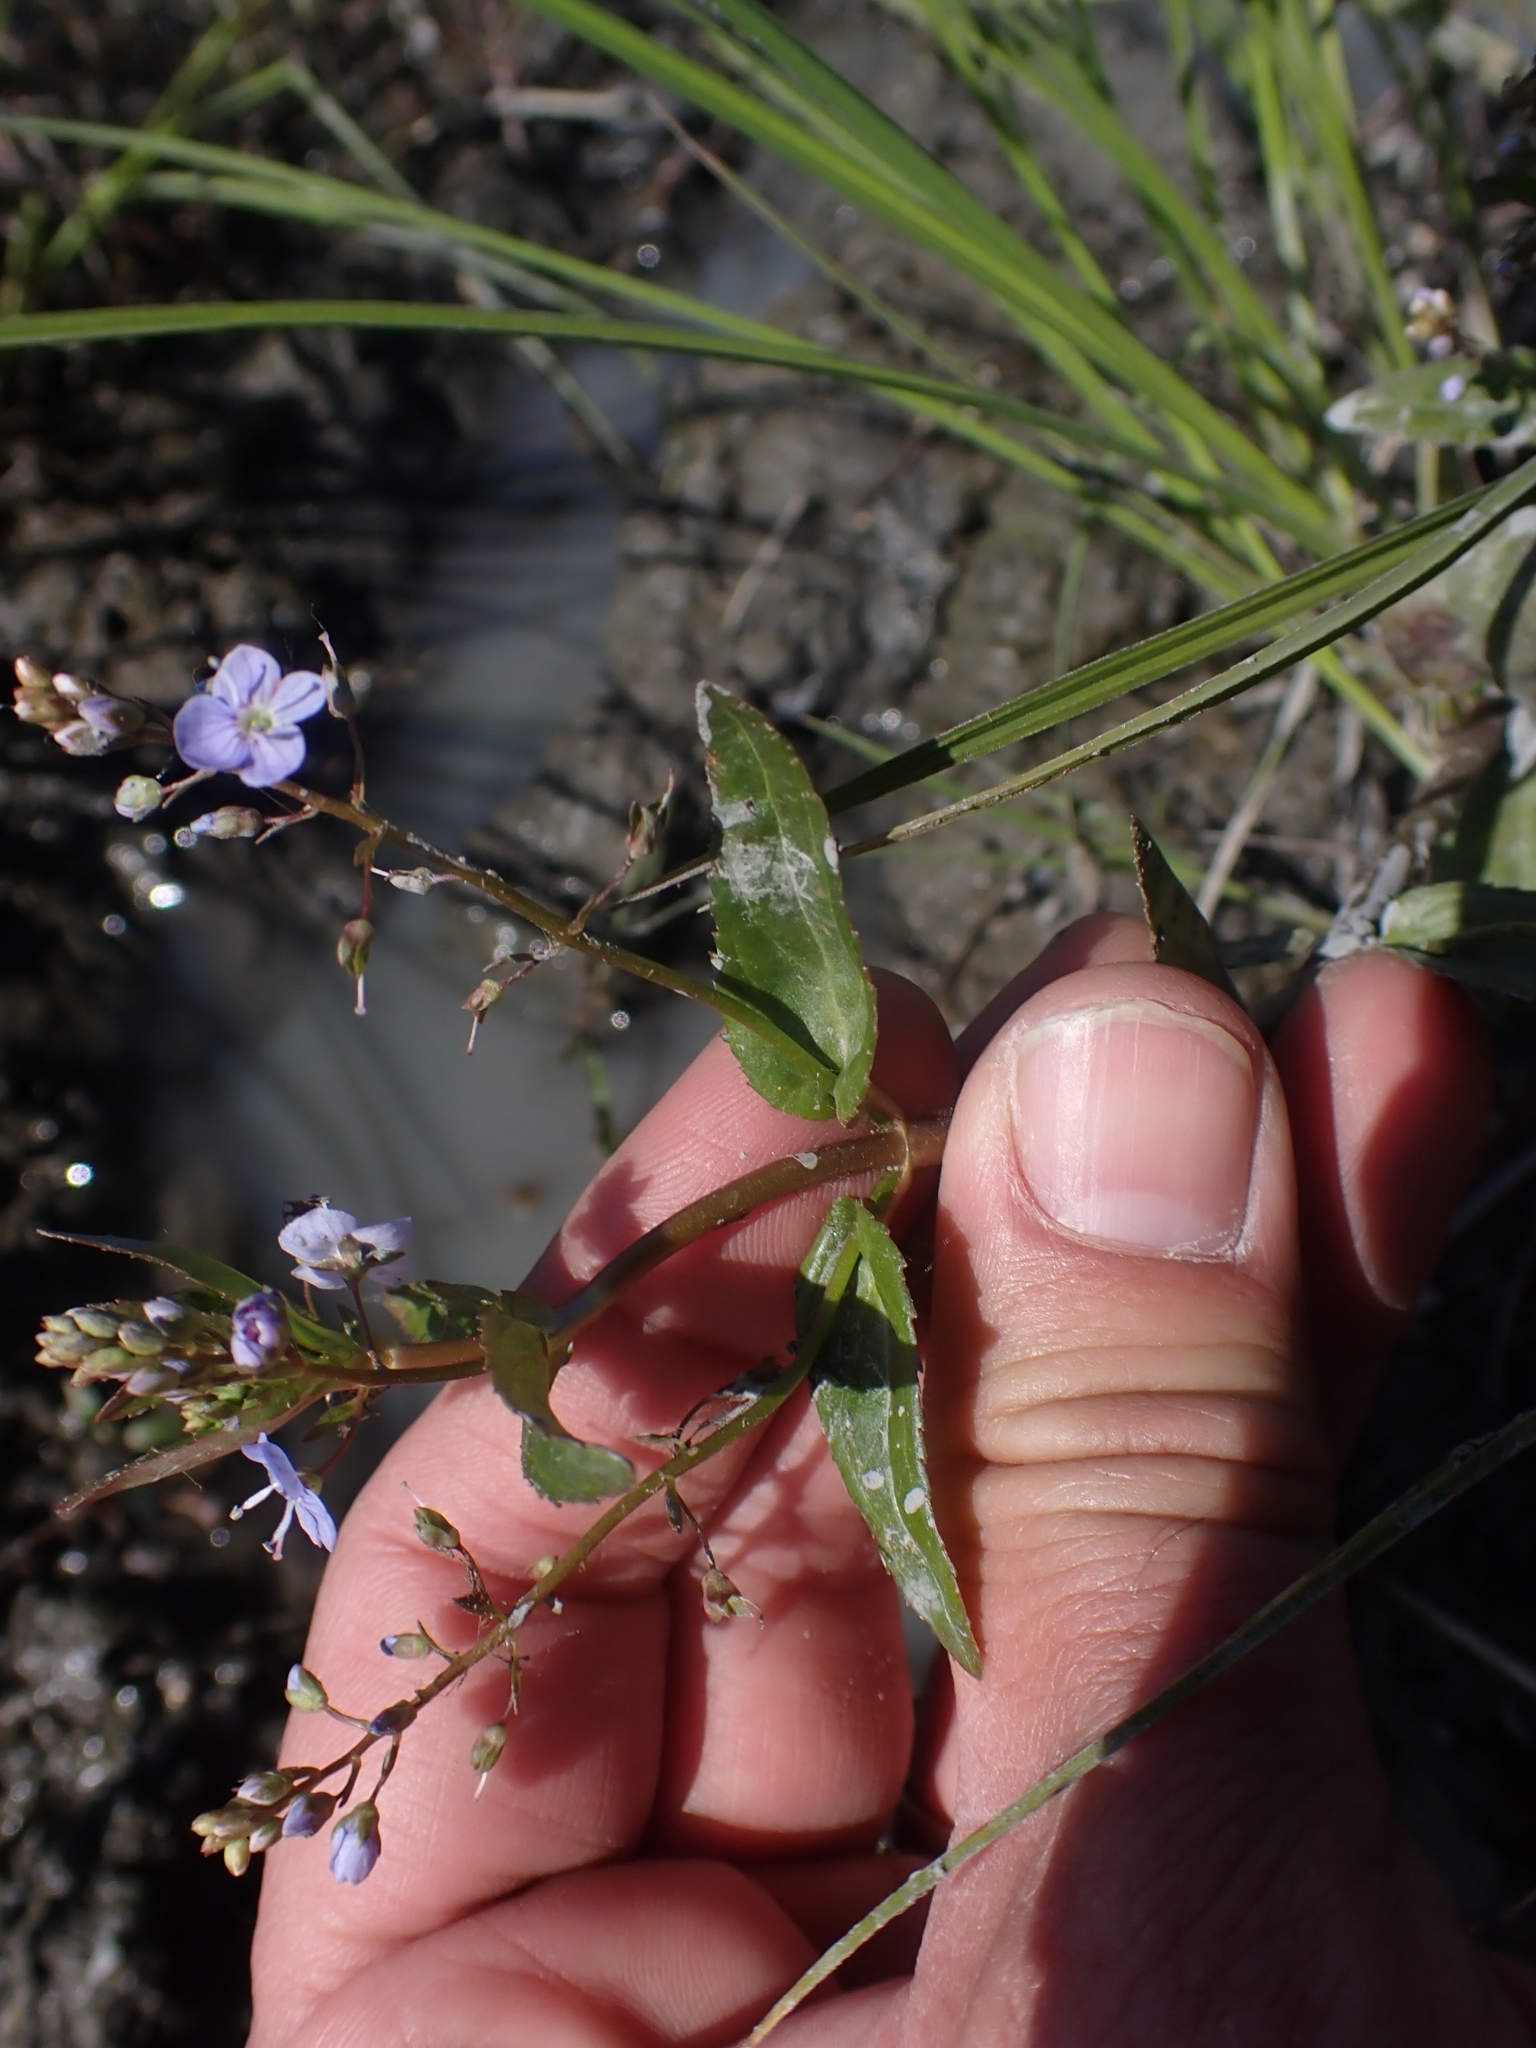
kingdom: Plantae
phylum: Tracheophyta
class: Magnoliopsida
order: Lamiales
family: Plantaginaceae
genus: Veronica
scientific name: Veronica americana
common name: American brooklime
